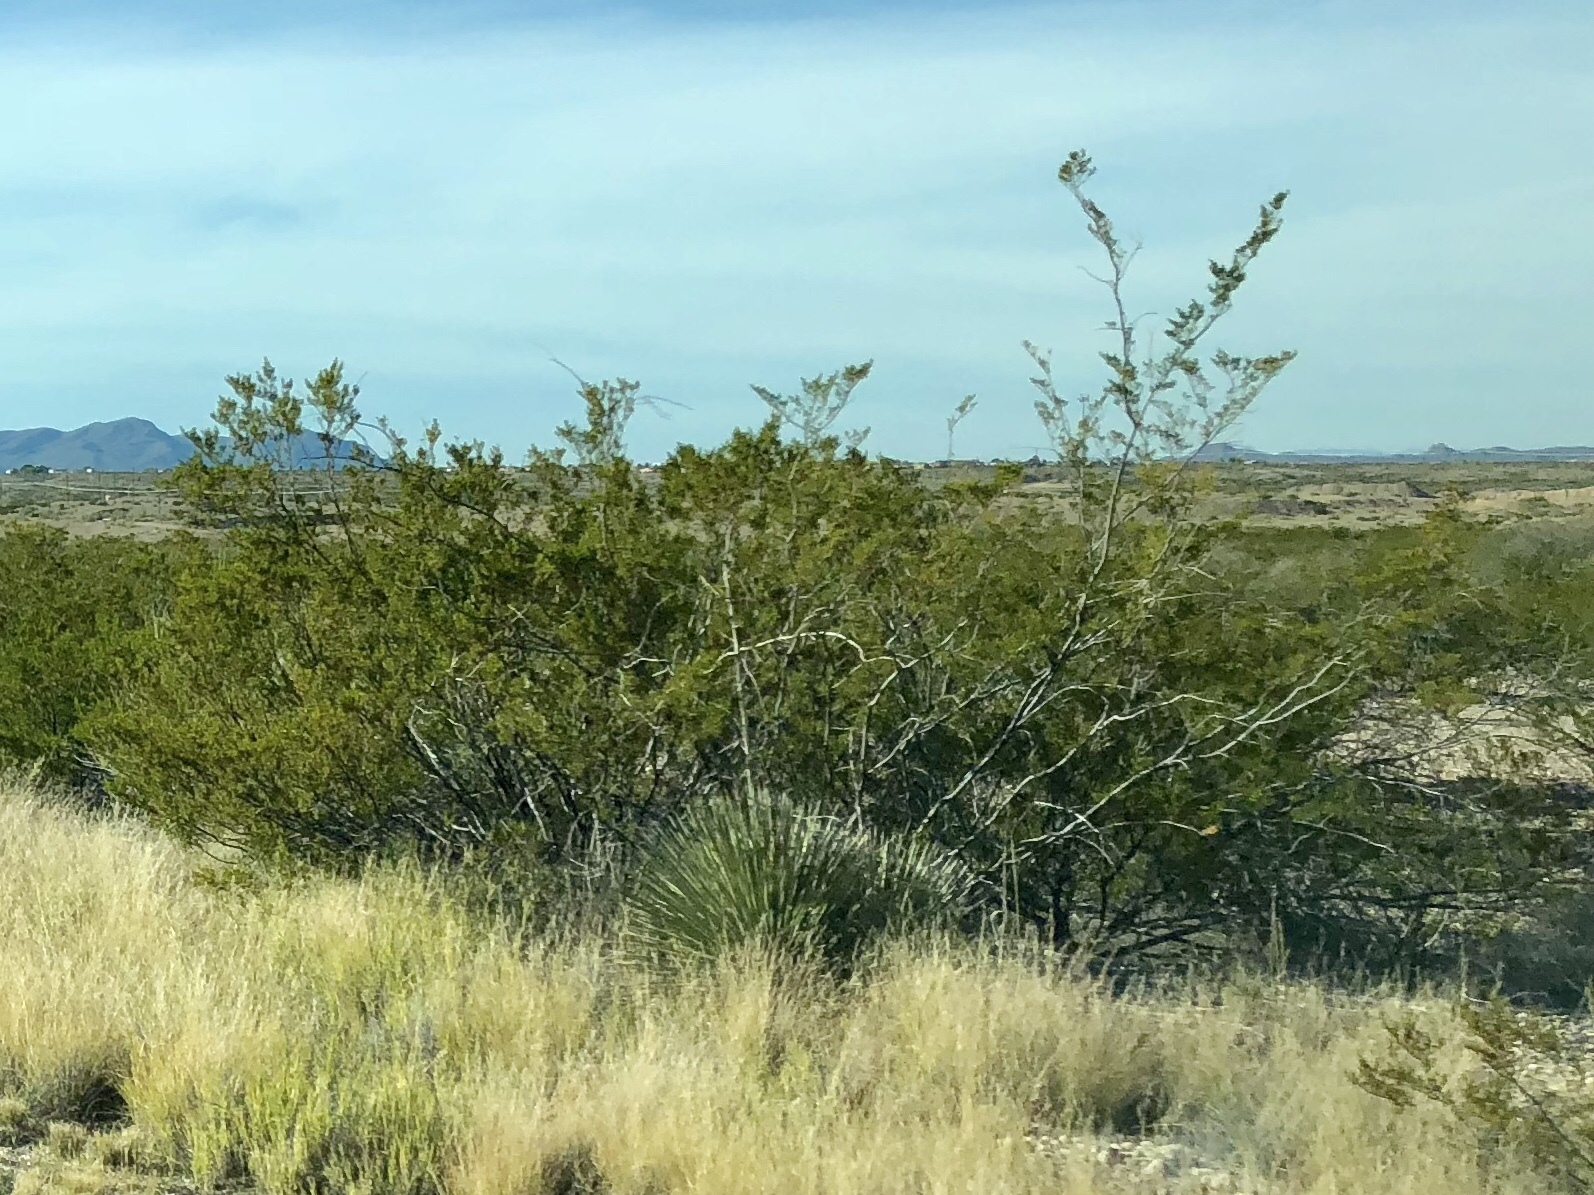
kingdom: Plantae
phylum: Tracheophyta
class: Magnoliopsida
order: Zygophyllales
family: Zygophyllaceae
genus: Larrea
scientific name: Larrea tridentata
